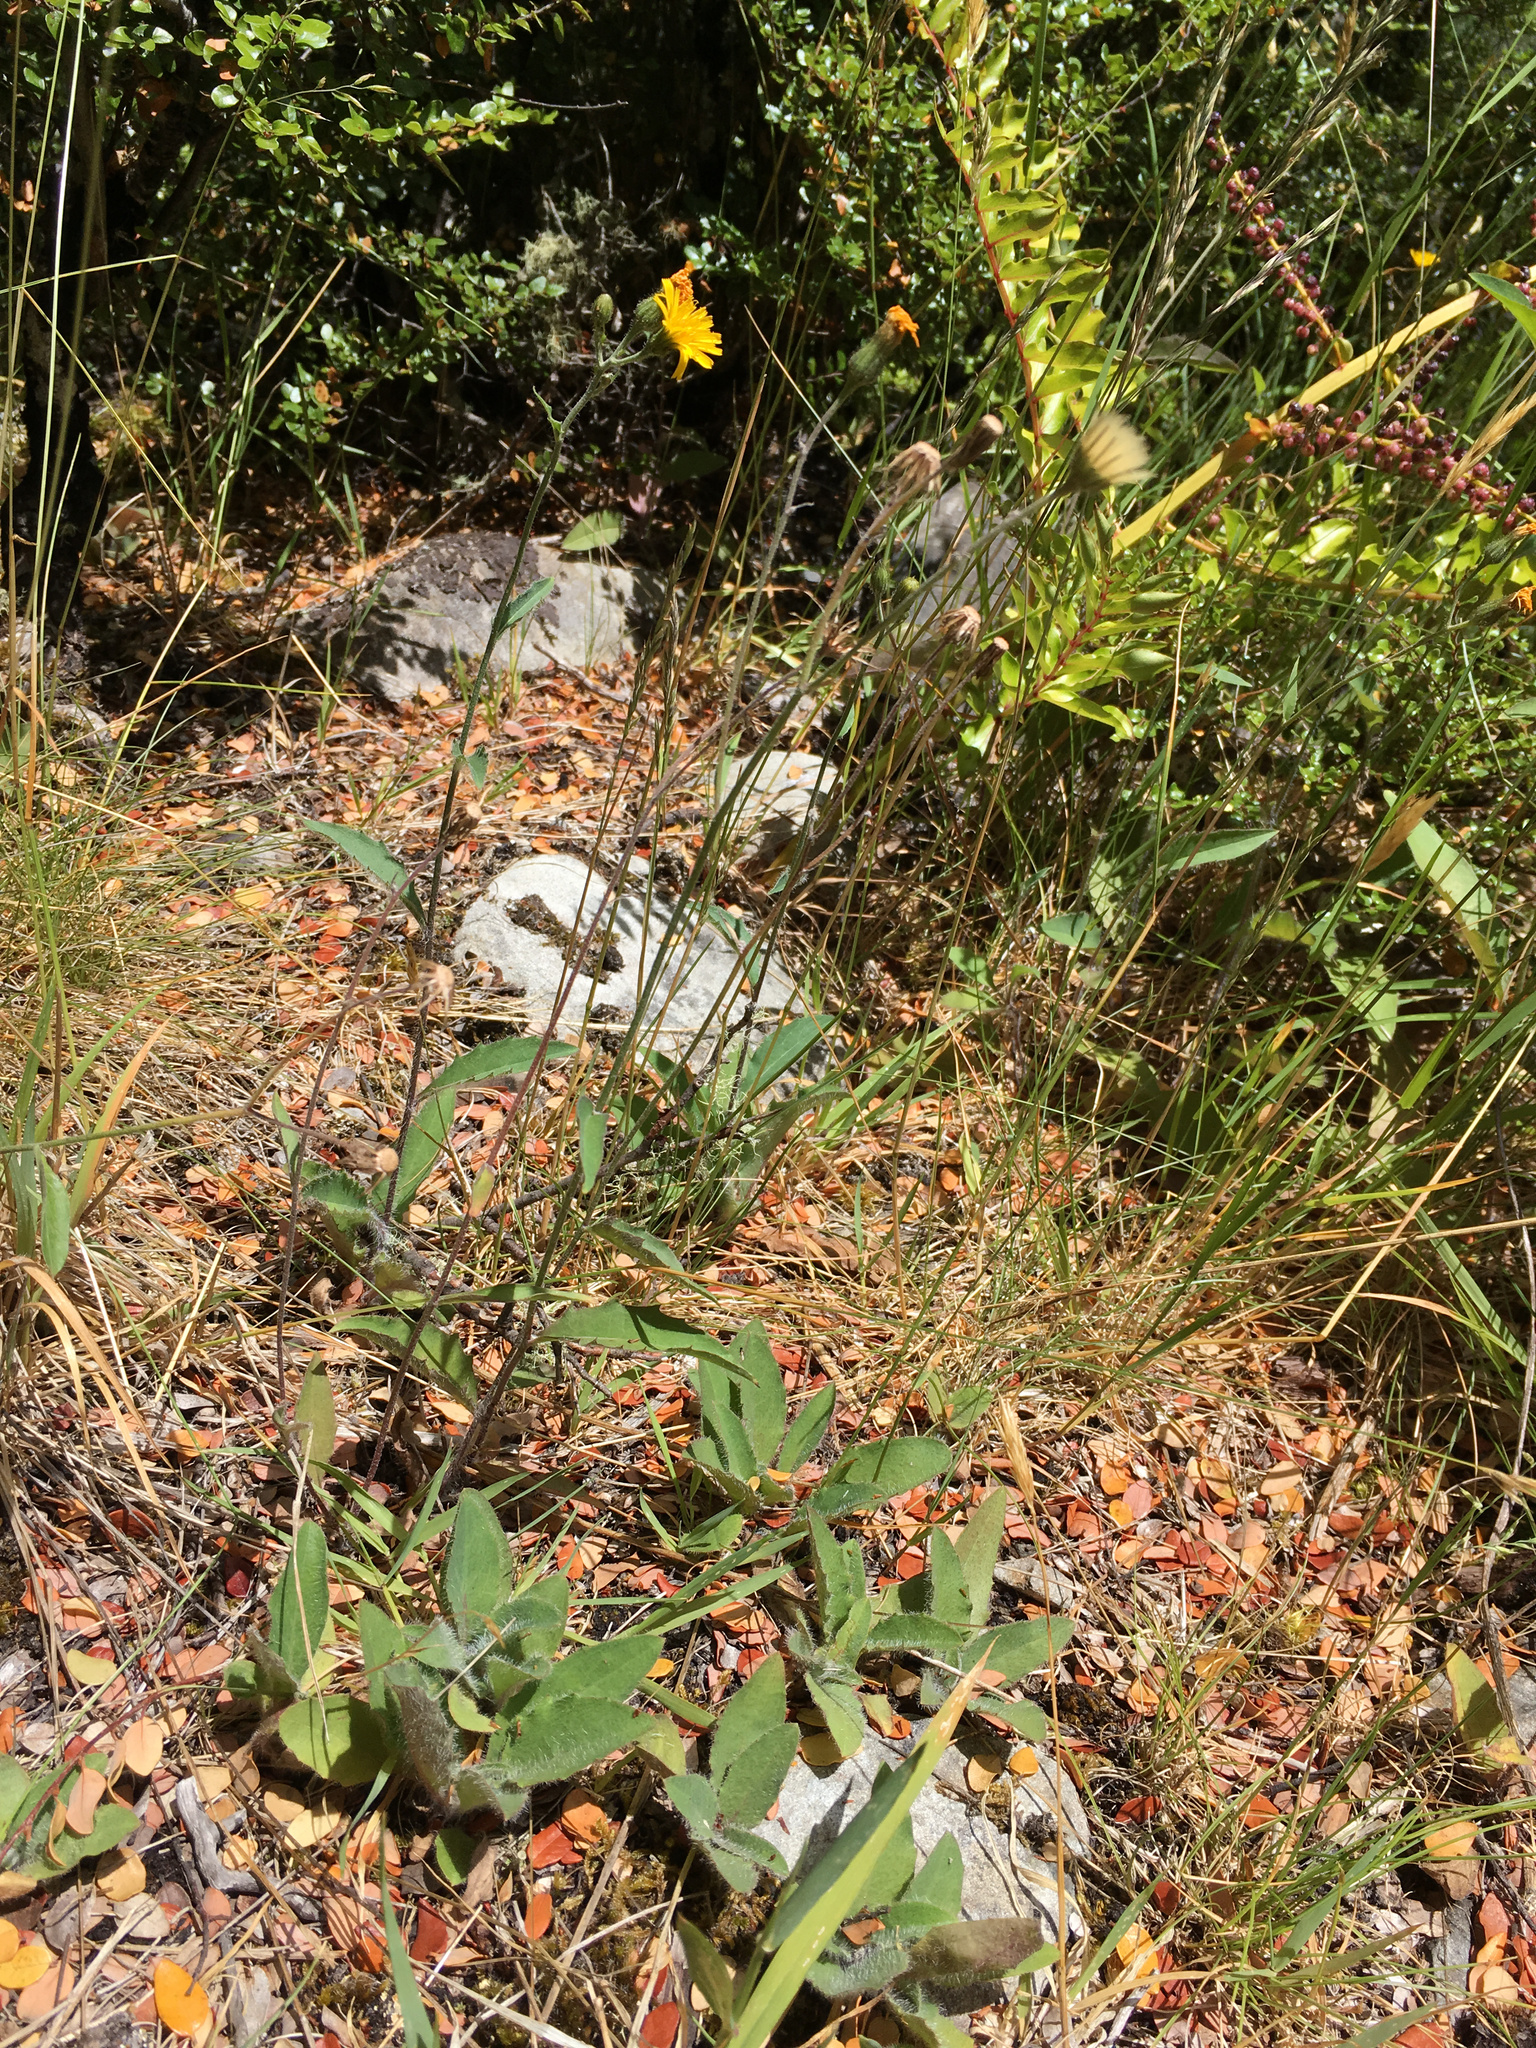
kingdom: Plantae
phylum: Tracheophyta
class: Magnoliopsida
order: Asterales
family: Asteraceae
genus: Hieracium
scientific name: Hieracium lepidulum
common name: Irregular-toothed hawkweed
